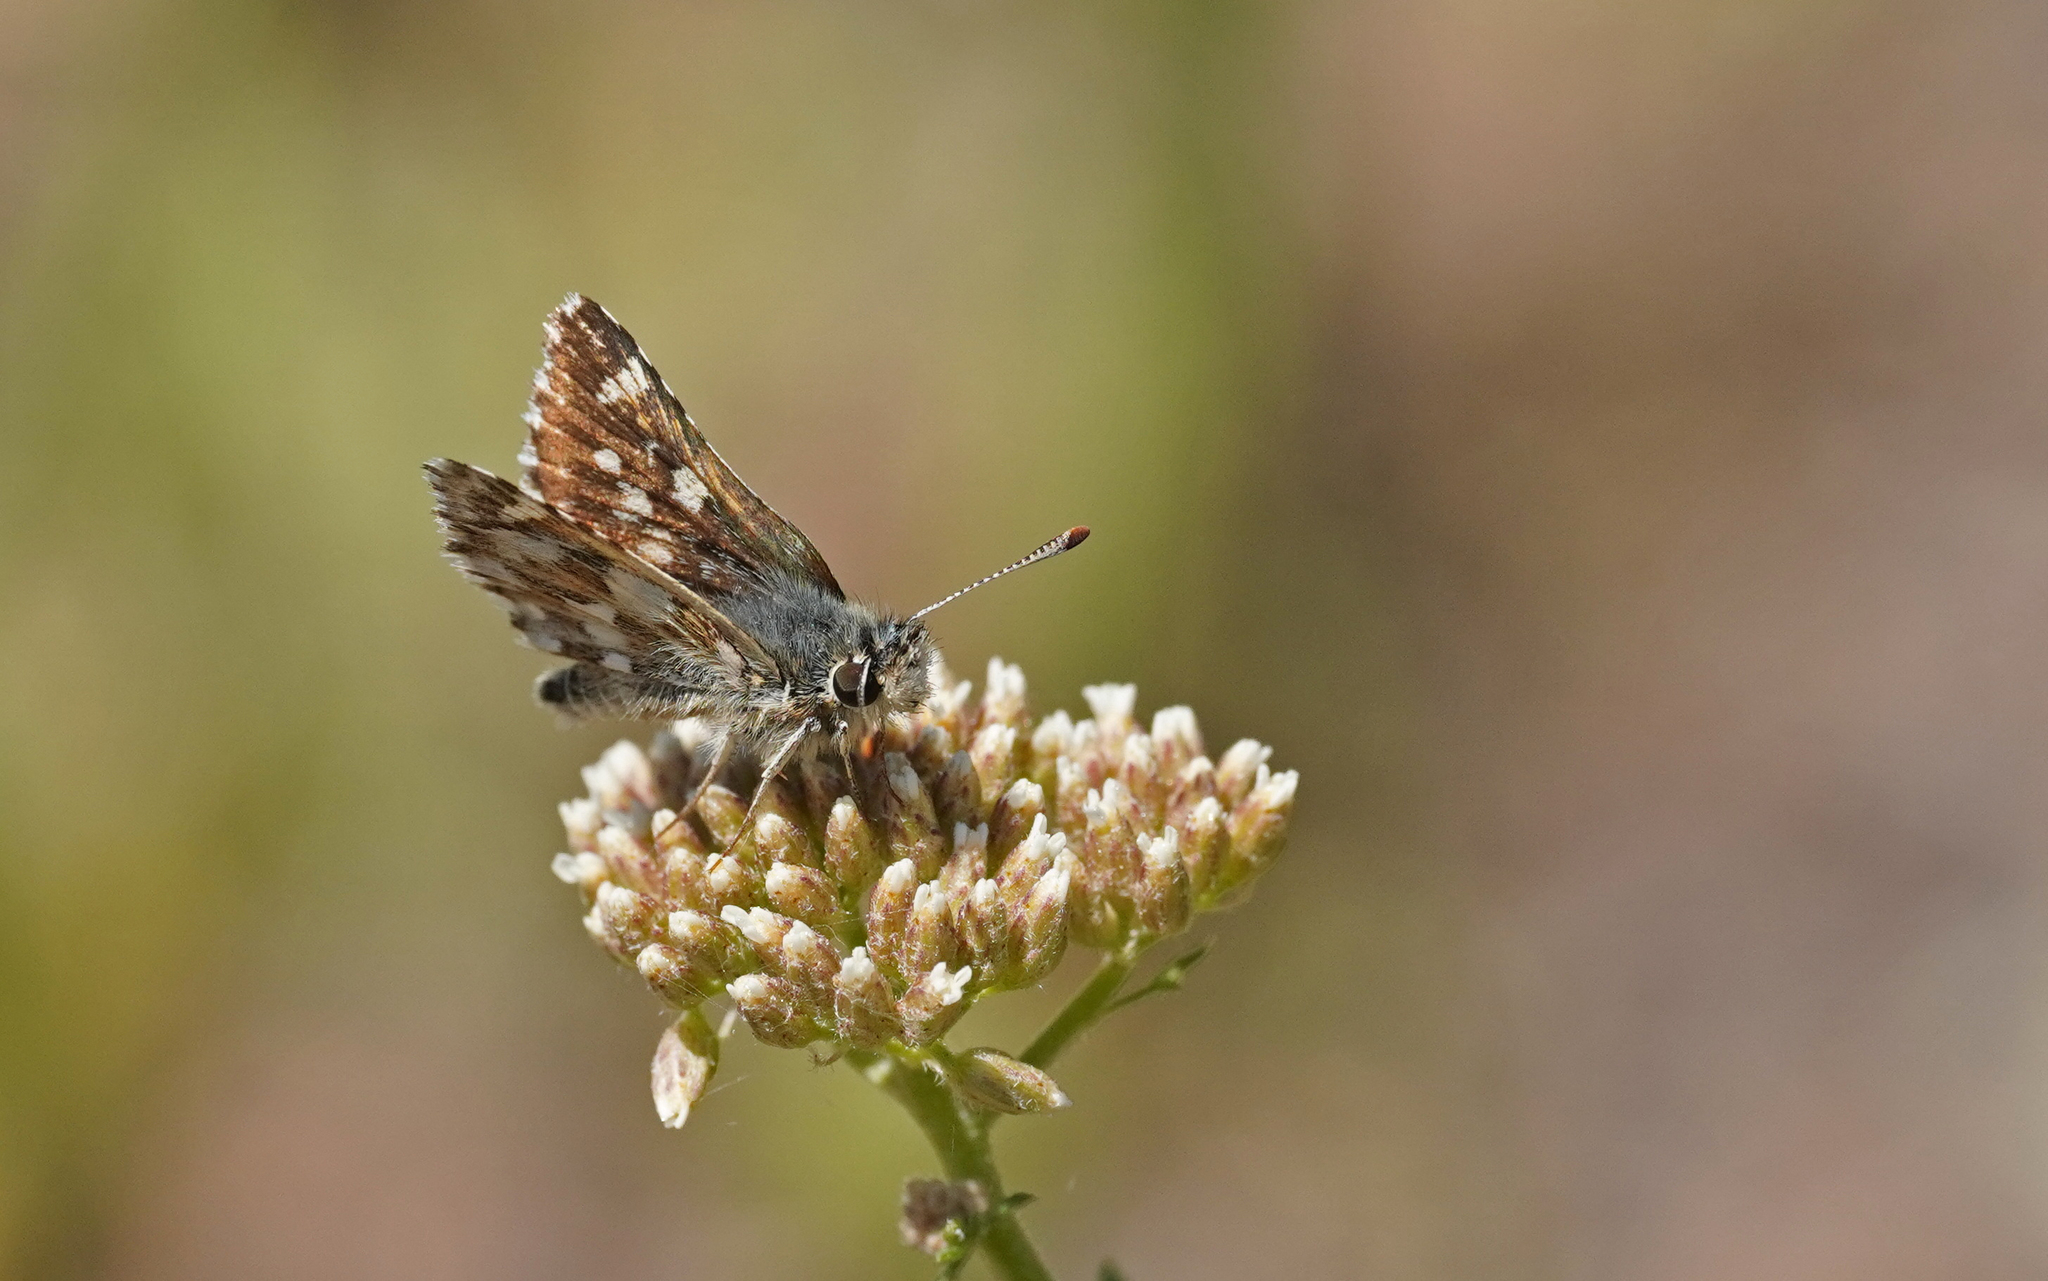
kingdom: Animalia
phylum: Arthropoda
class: Insecta
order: Lepidoptera
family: Hesperiidae
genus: Spialia
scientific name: Spialia sertorius
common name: Red underwing skipper
